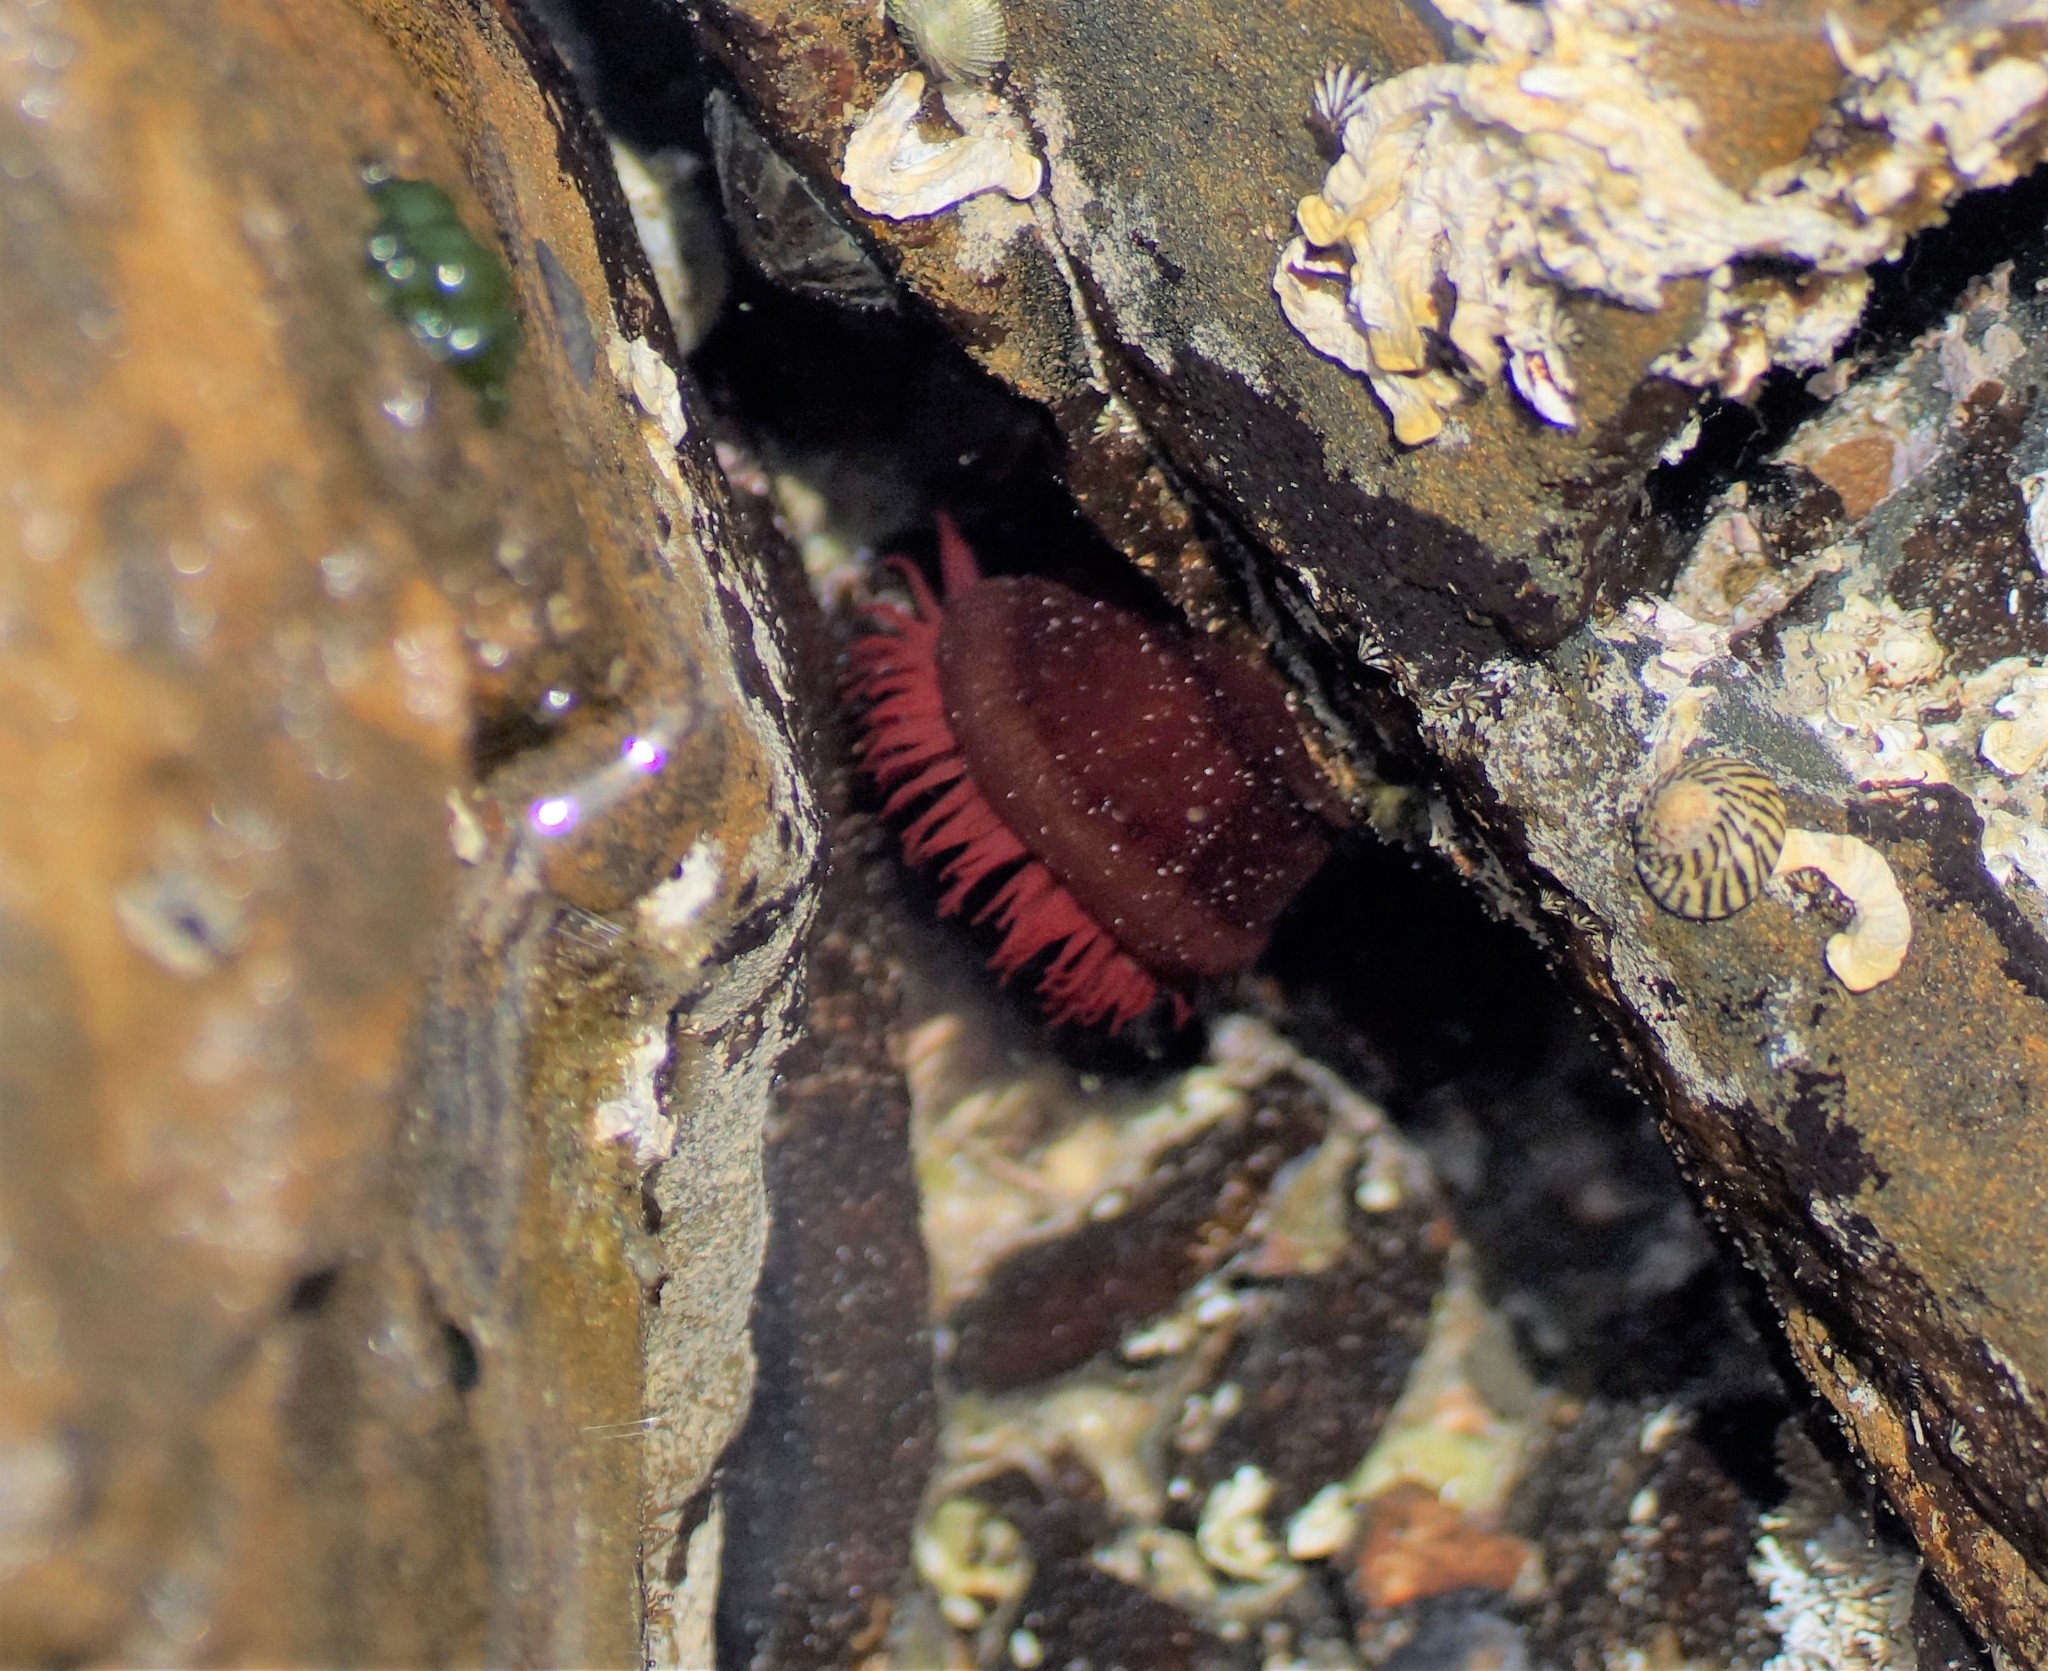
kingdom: Animalia
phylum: Cnidaria
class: Anthozoa
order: Actiniaria
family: Actiniidae
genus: Actinia
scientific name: Actinia tenebrosa
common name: Waratah anemone
